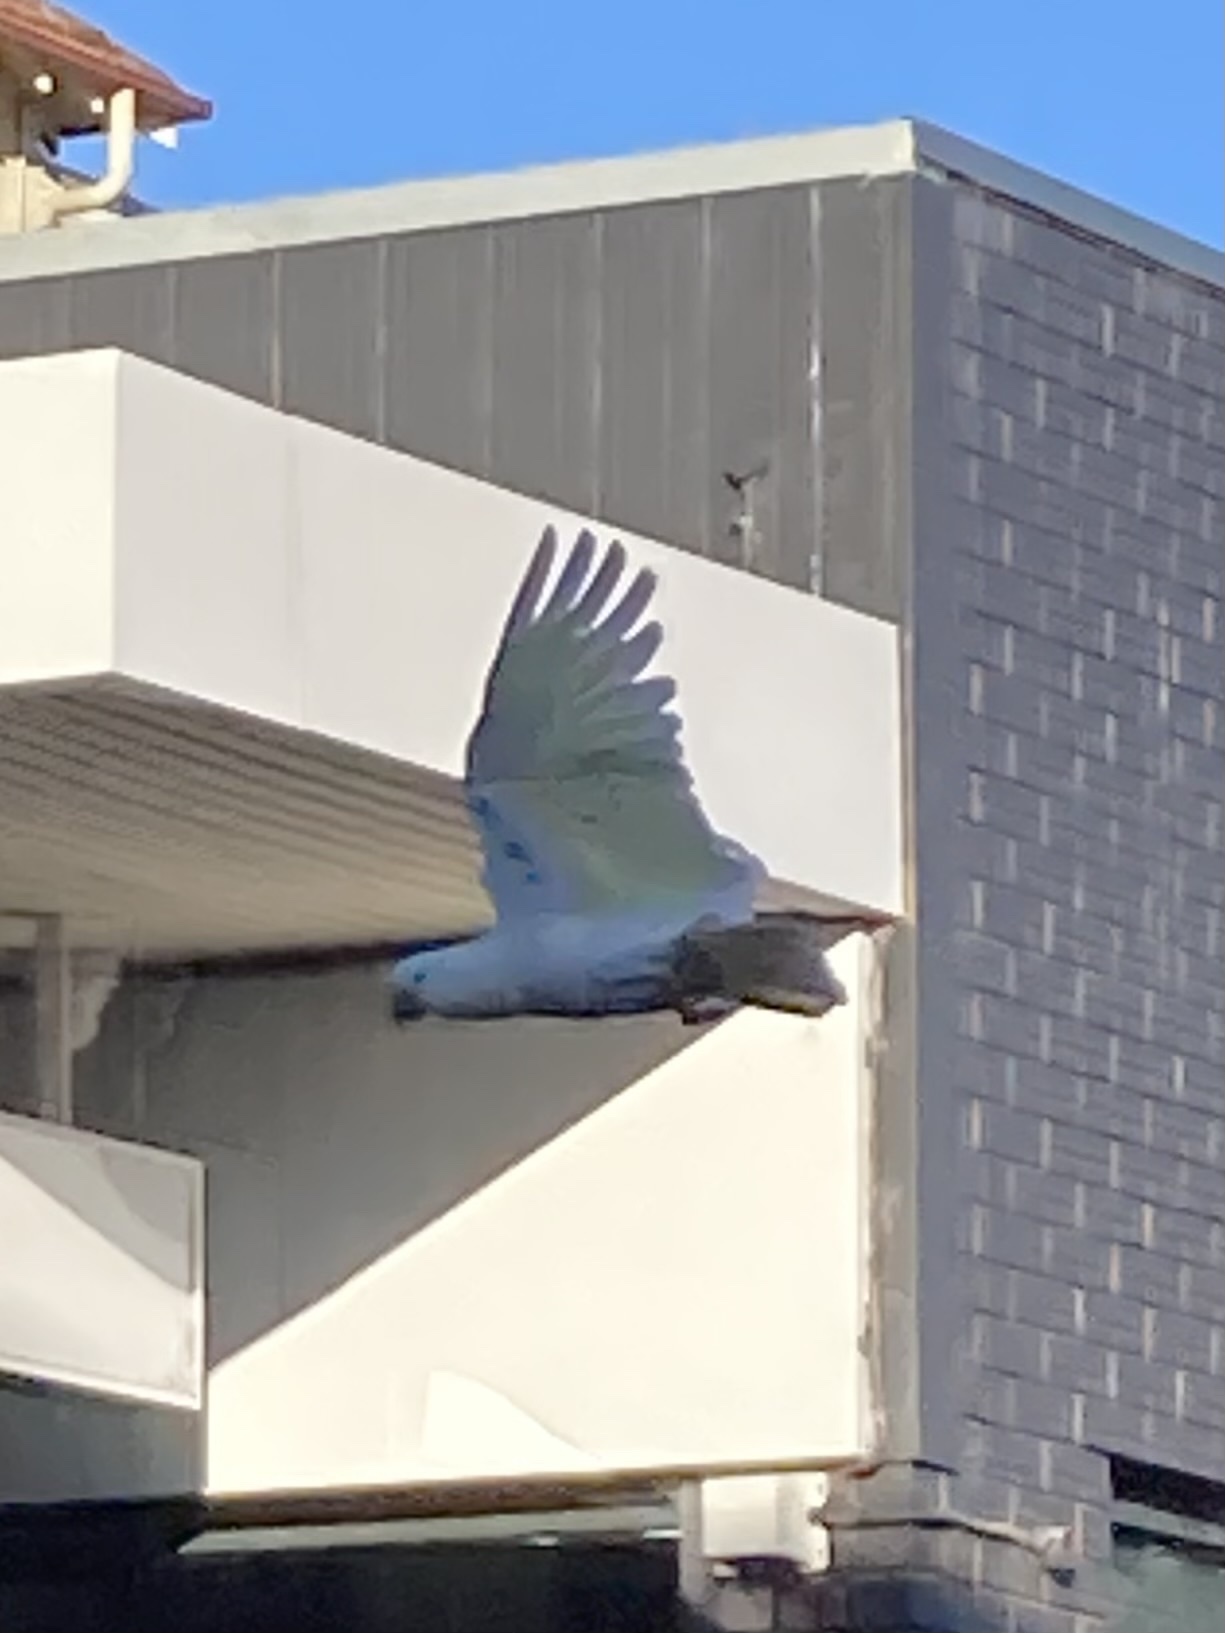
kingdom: Animalia
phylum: Chordata
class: Aves
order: Psittaciformes
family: Psittacidae
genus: Cacatua
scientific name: Cacatua galerita
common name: Sulphur-crested cockatoo
